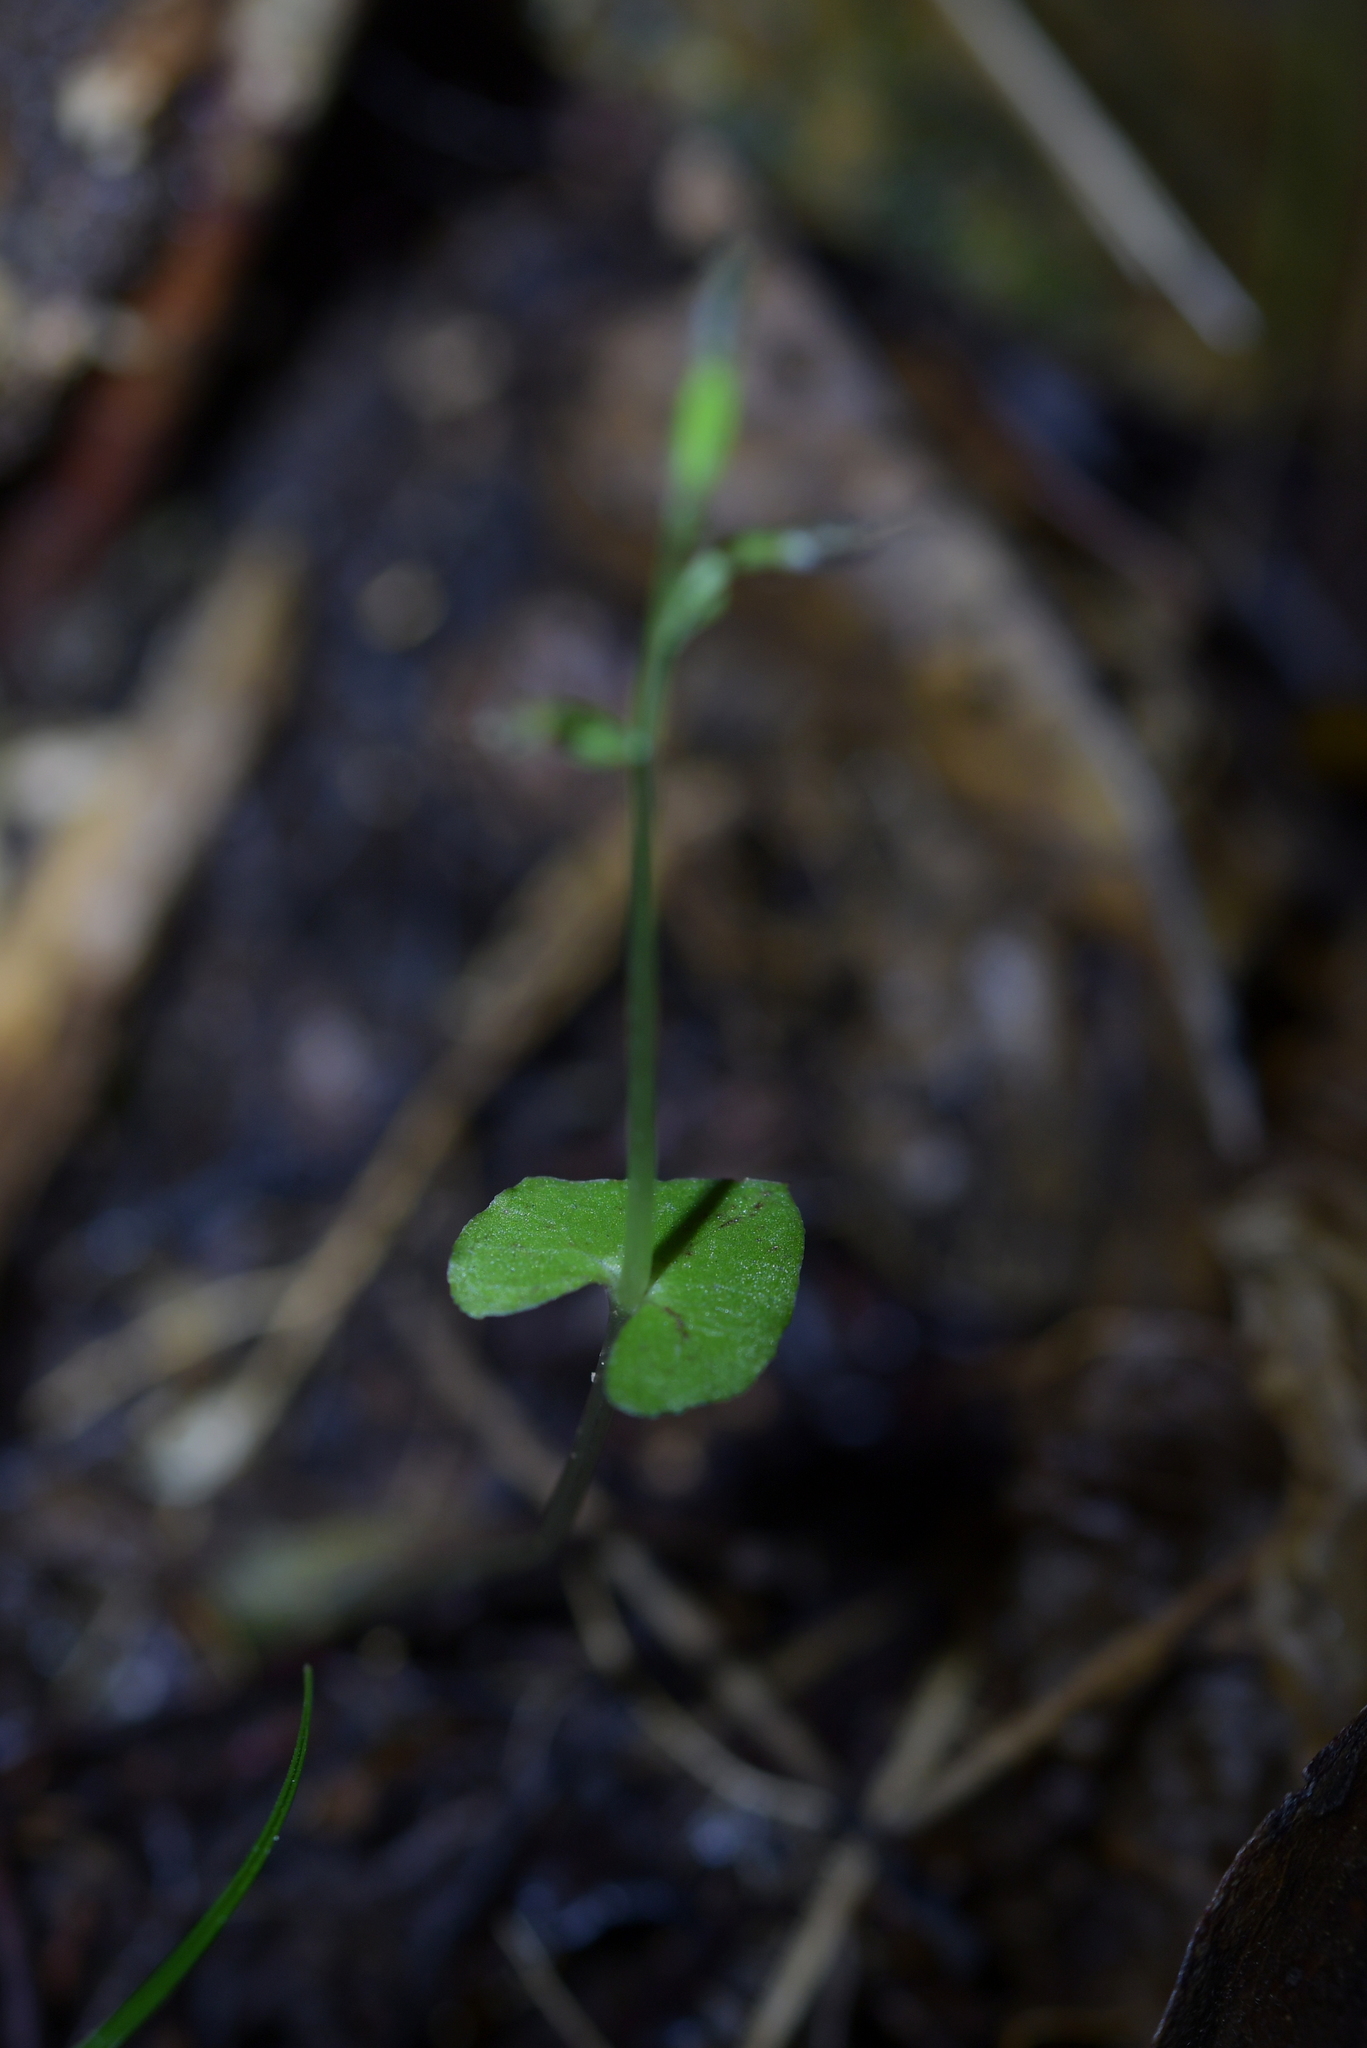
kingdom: Plantae
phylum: Tracheophyta
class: Liliopsida
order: Asparagales
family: Orchidaceae
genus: Acianthus
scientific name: Acianthus sinclairii
